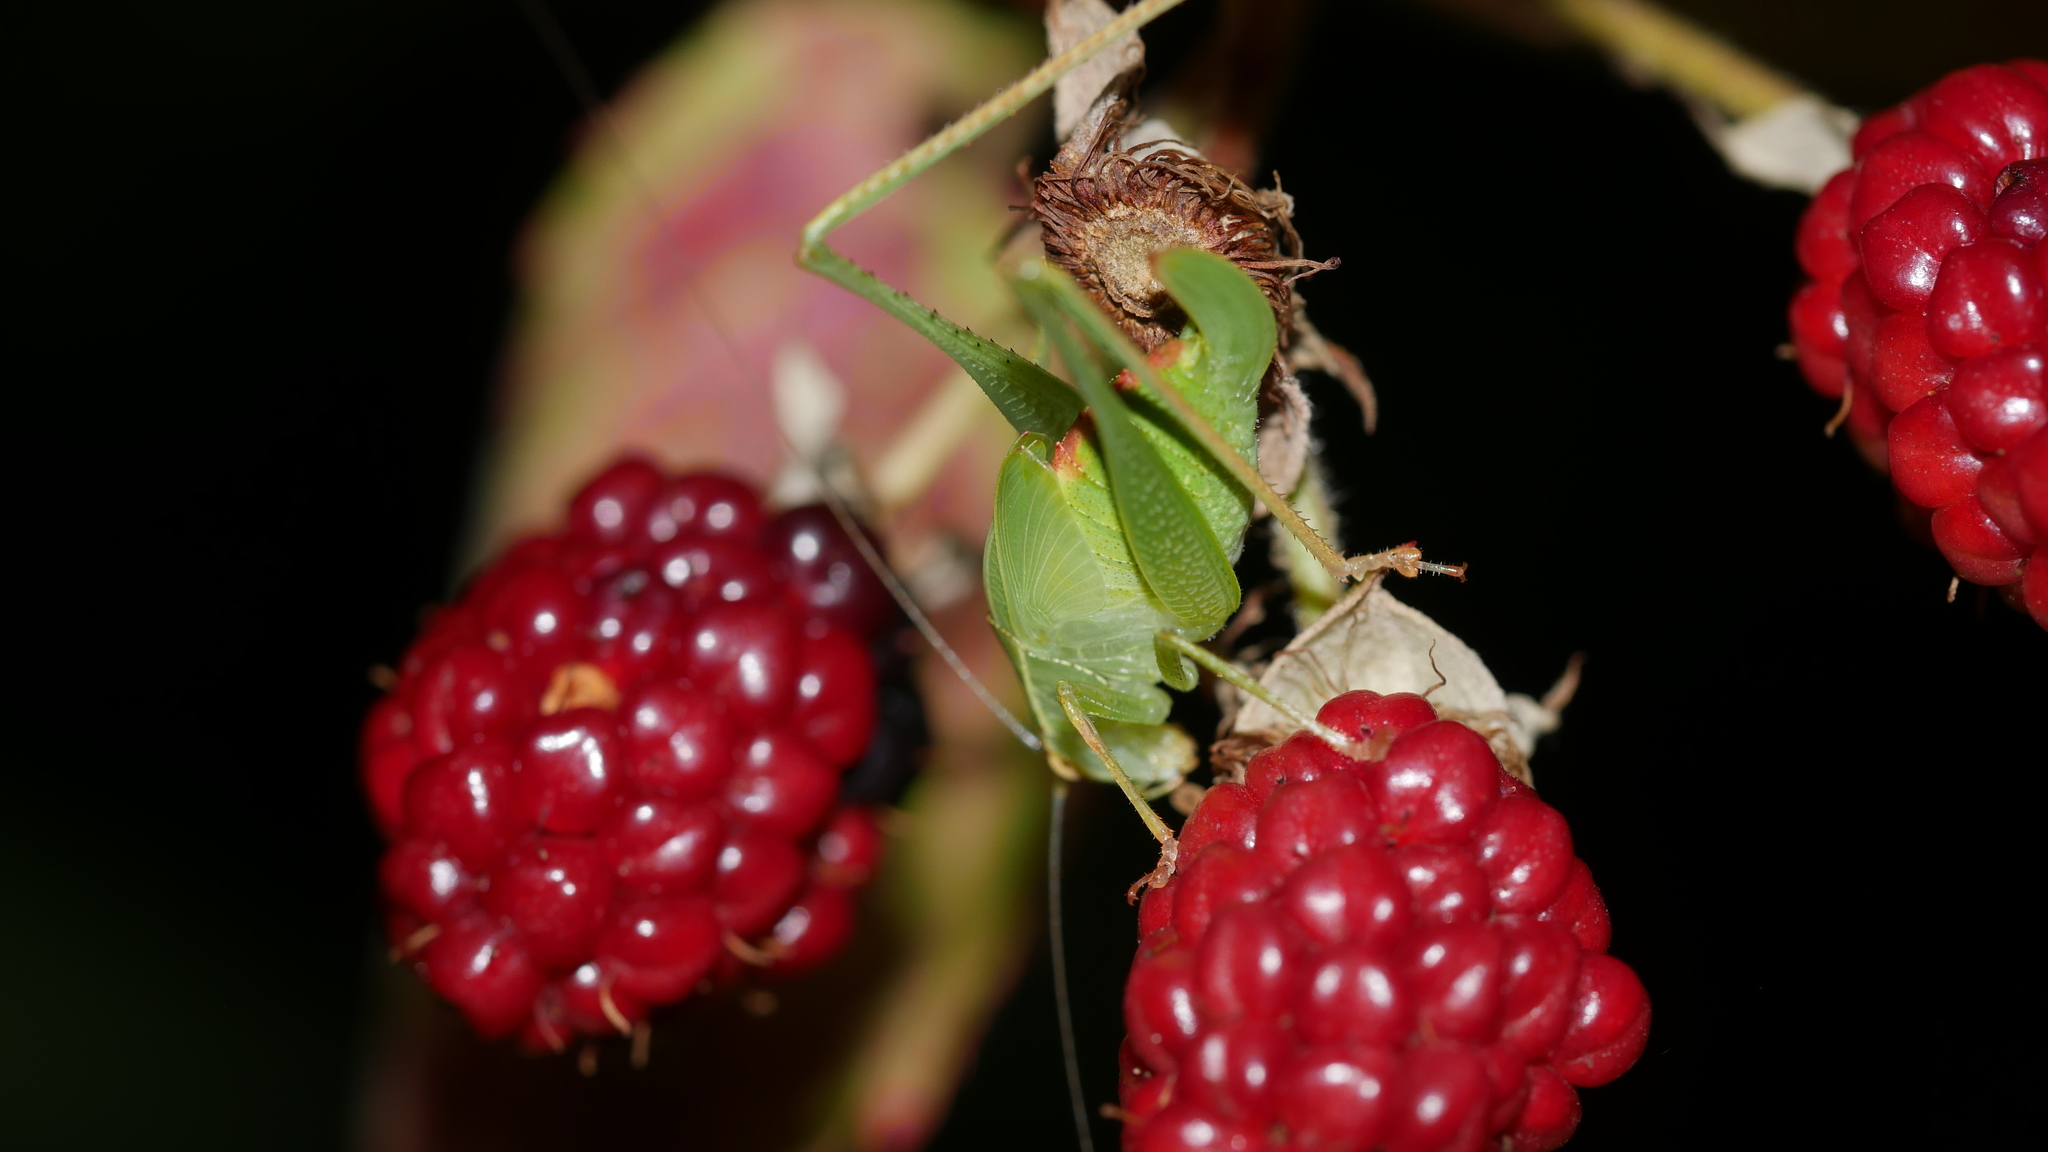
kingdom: Animalia
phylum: Arthropoda
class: Insecta
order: Orthoptera
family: Tettigoniidae
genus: Montezumina
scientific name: Montezumina modesta
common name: Modest katydid
